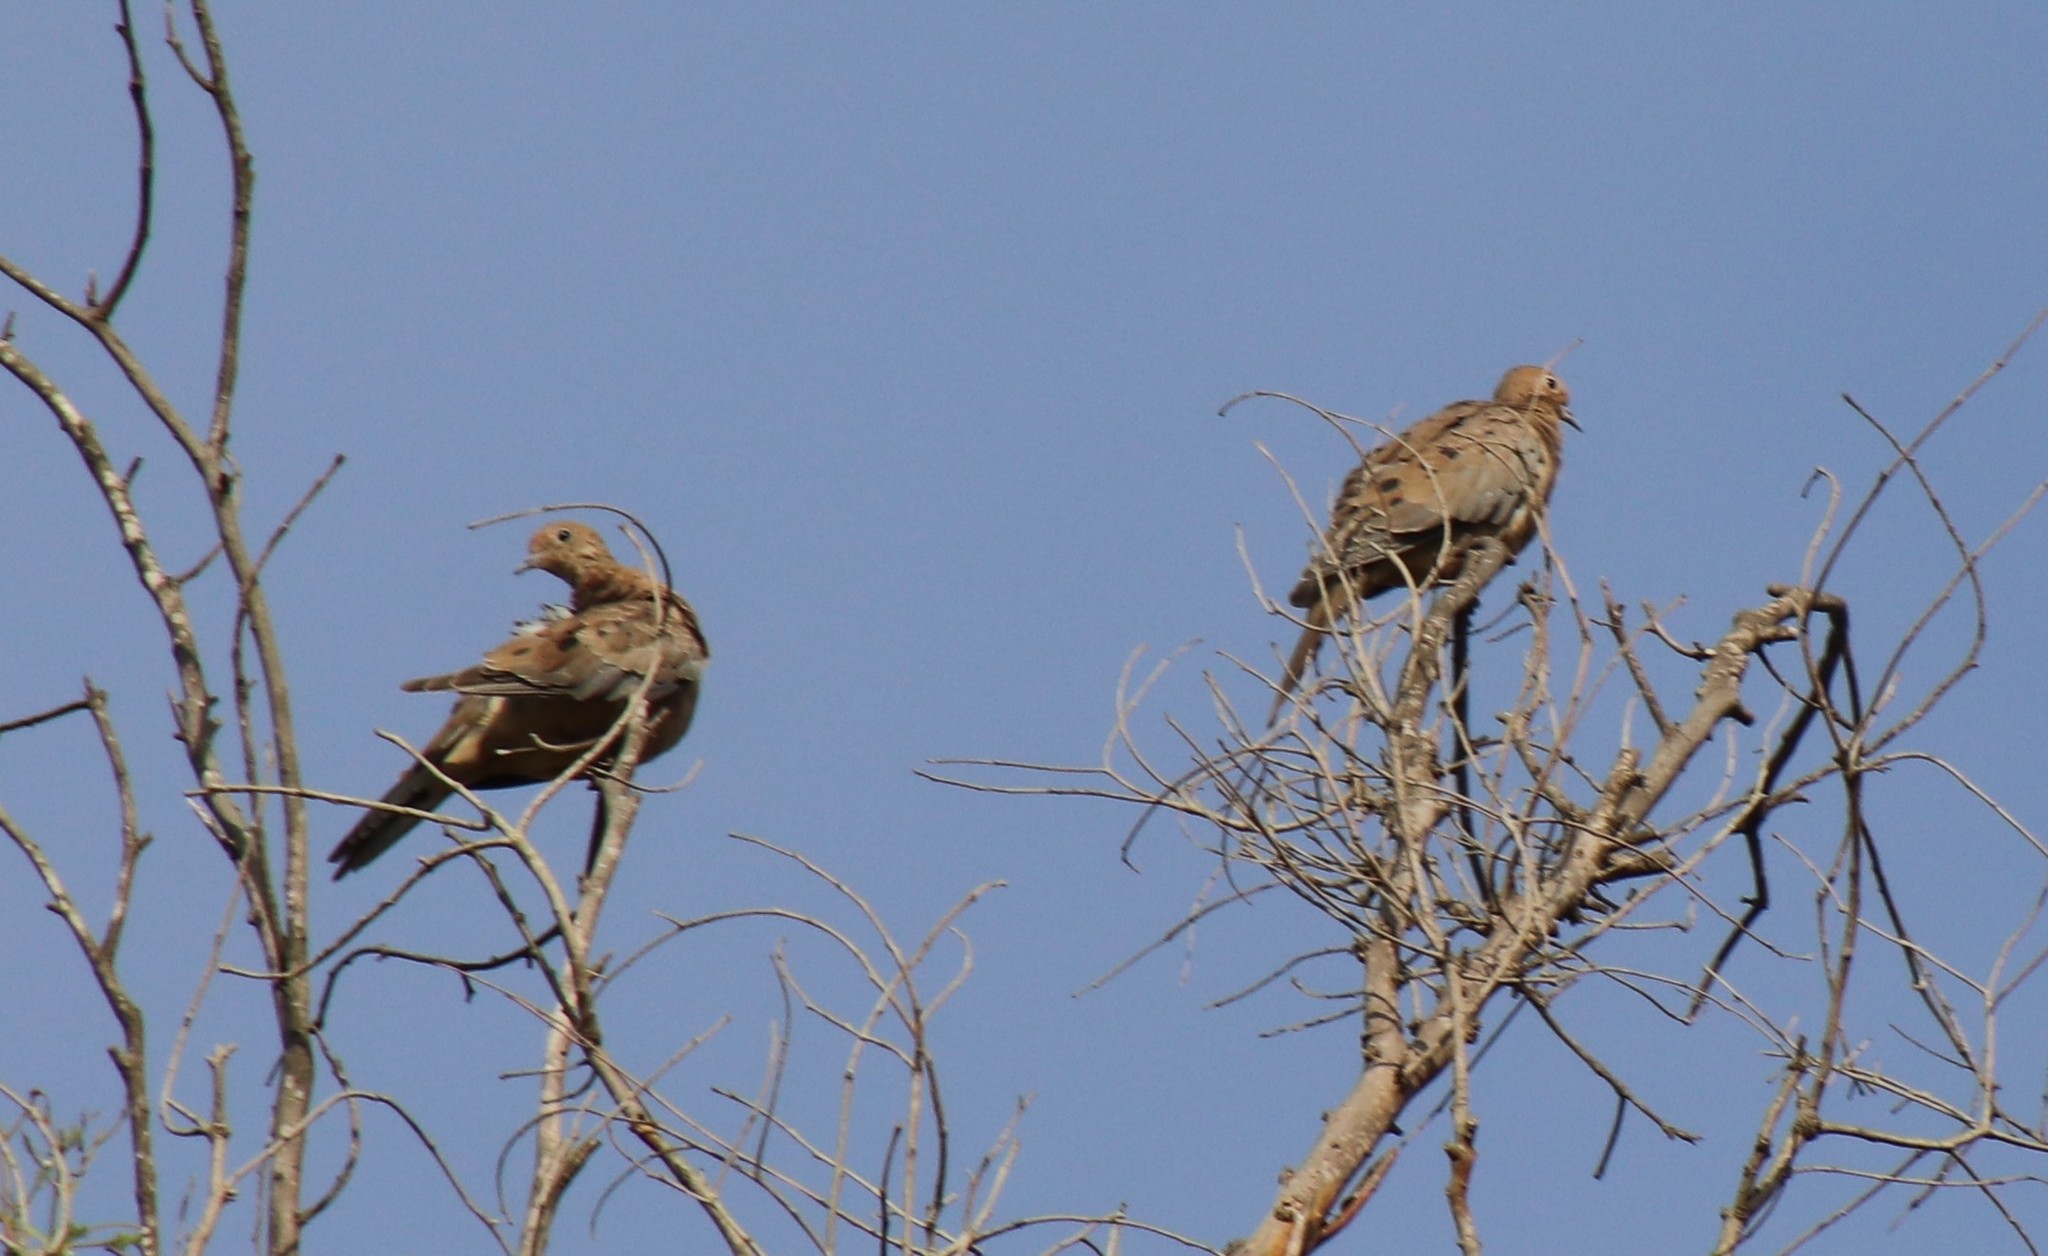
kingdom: Animalia
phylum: Chordata
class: Aves
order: Columbiformes
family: Columbidae
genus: Zenaida
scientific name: Zenaida macroura
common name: Mourning dove
